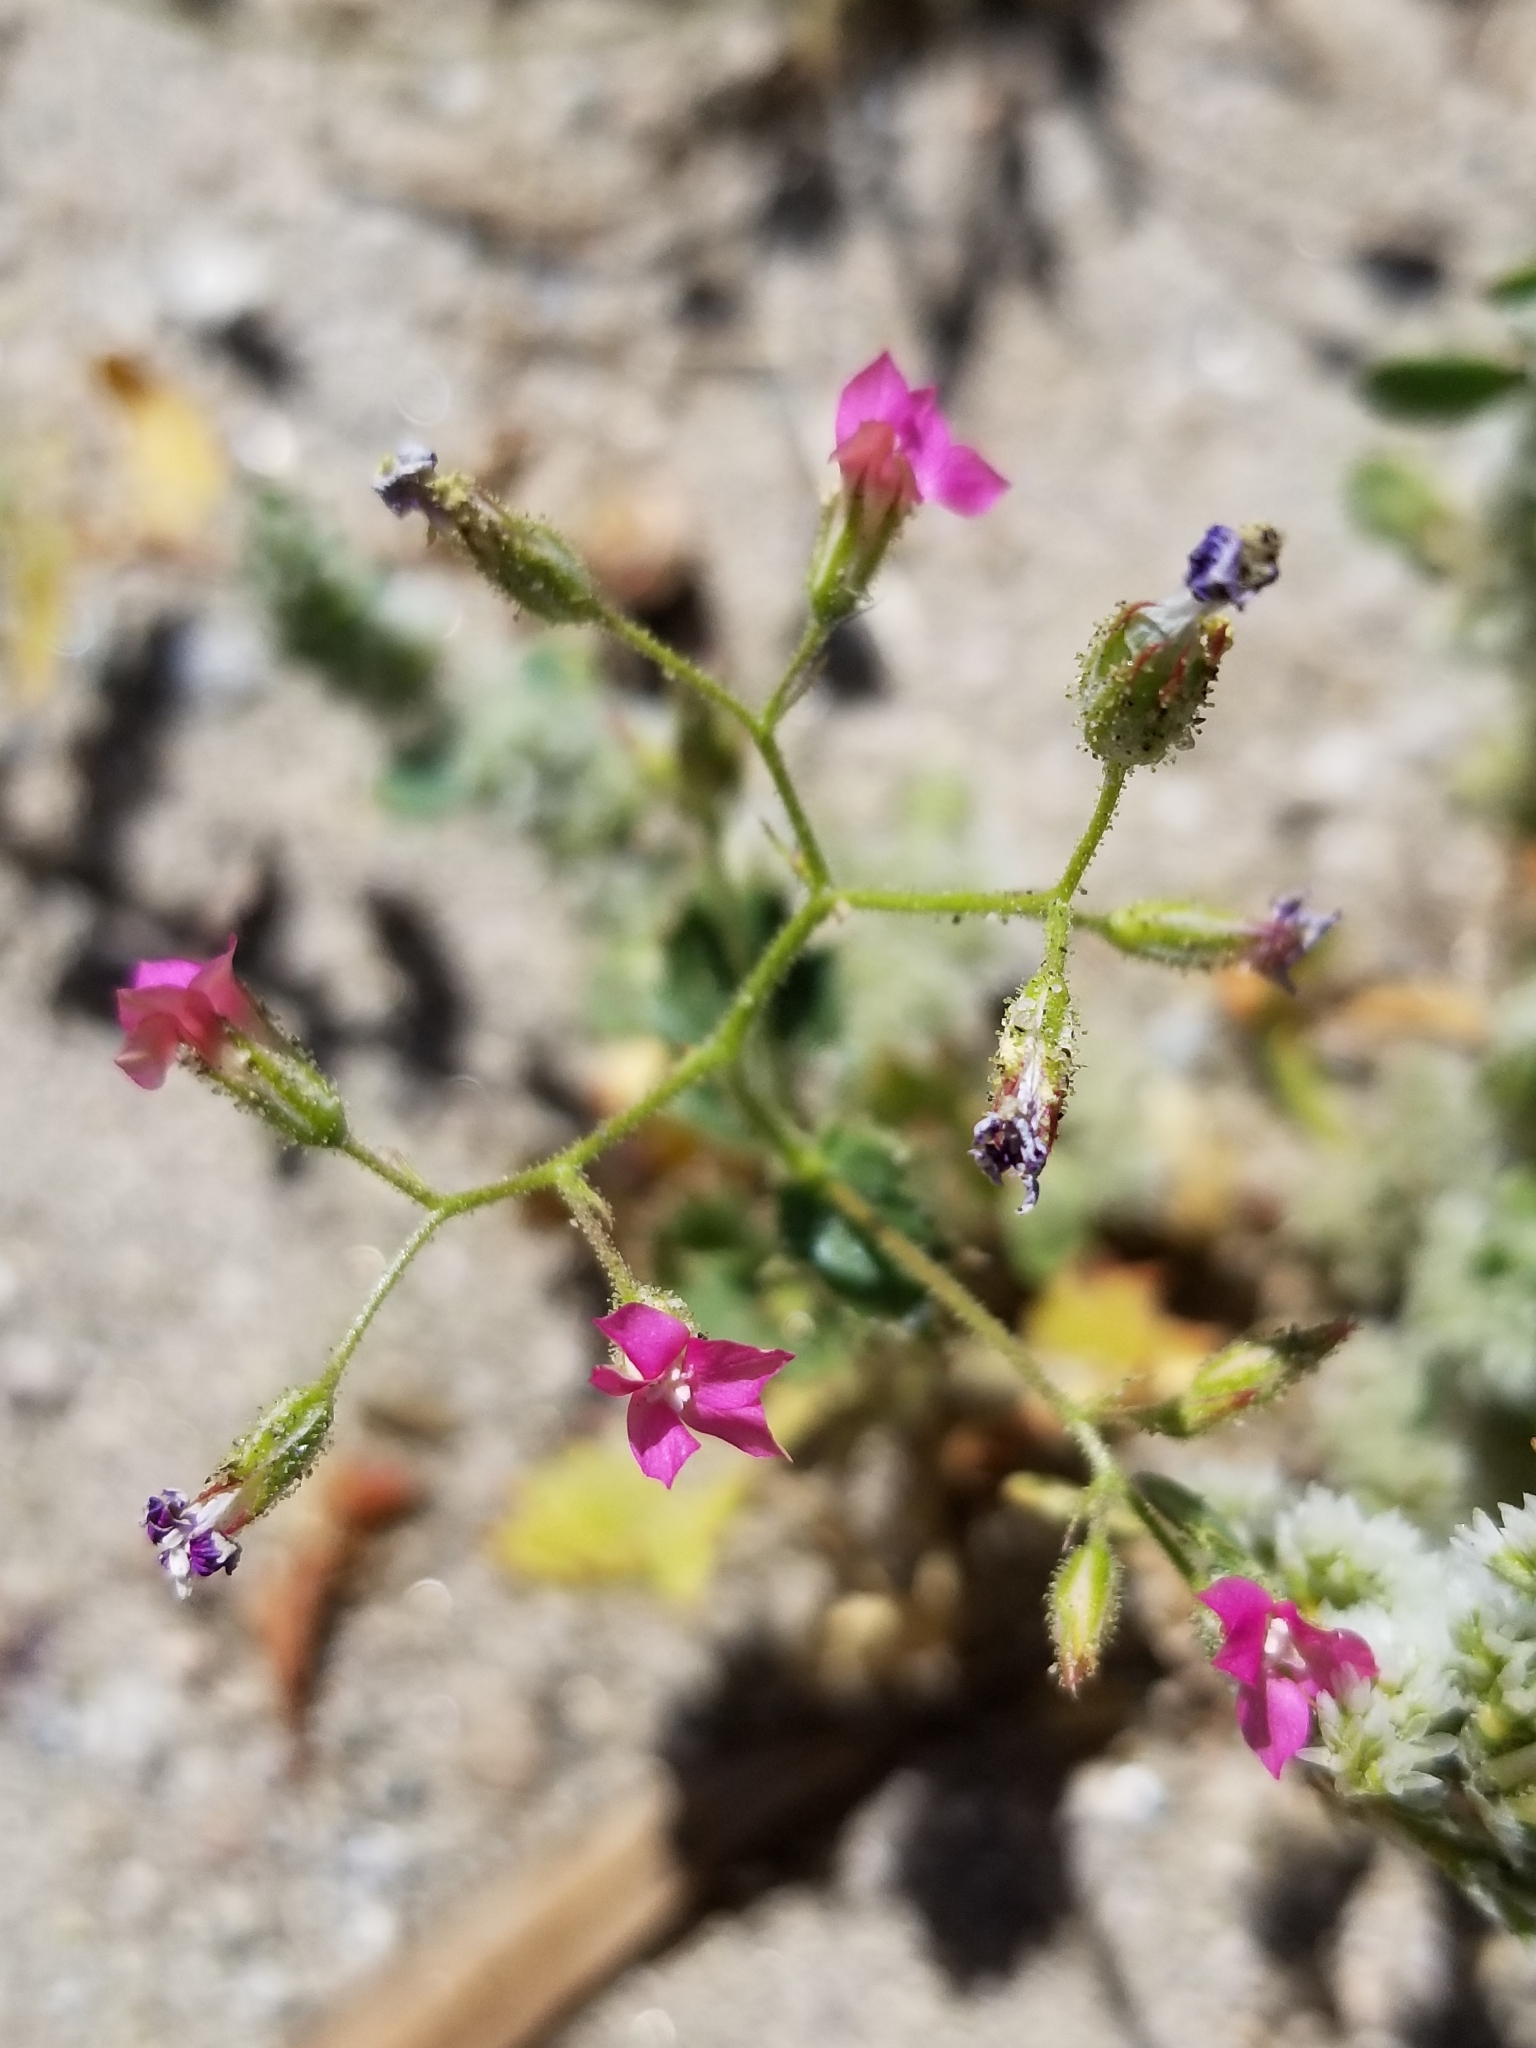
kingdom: Plantae
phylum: Tracheophyta
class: Magnoliopsida
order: Ericales
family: Polemoniaceae
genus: Aliciella
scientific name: Aliciella latifolia
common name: Broad-leaf gilia
